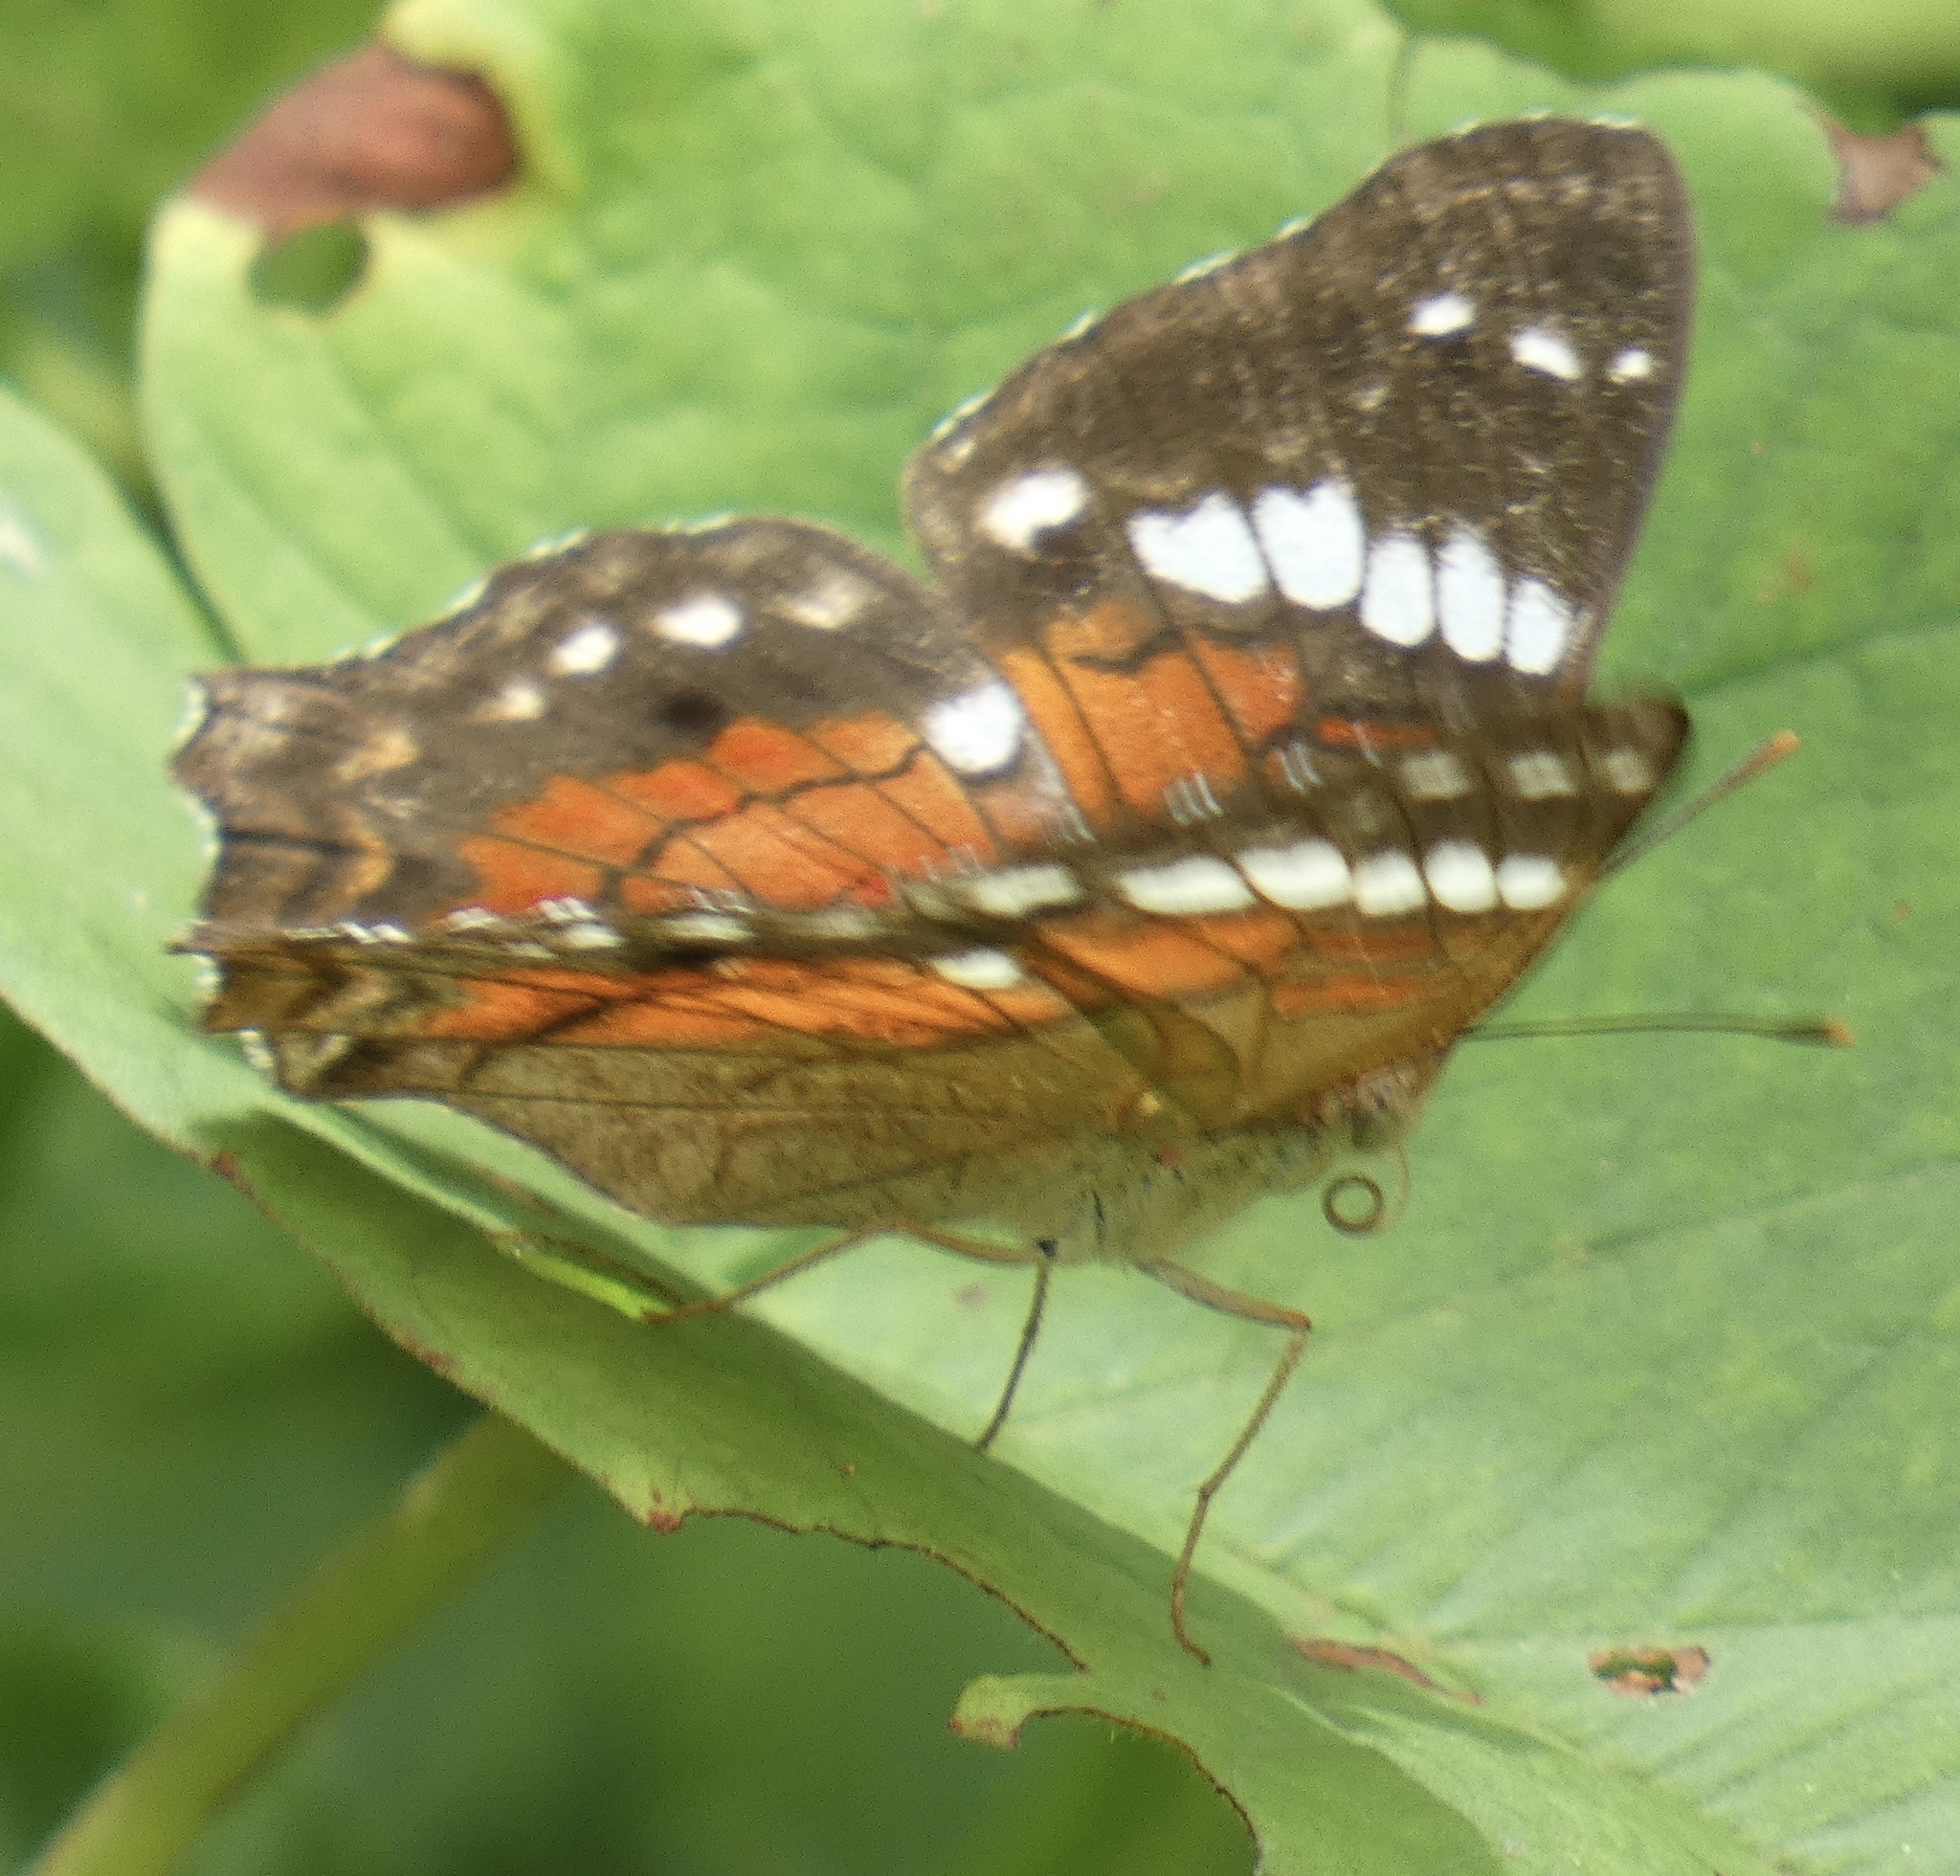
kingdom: Animalia
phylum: Arthropoda
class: Insecta
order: Lepidoptera
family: Nymphalidae
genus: Anartia
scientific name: Anartia amathea
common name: Red peacock
